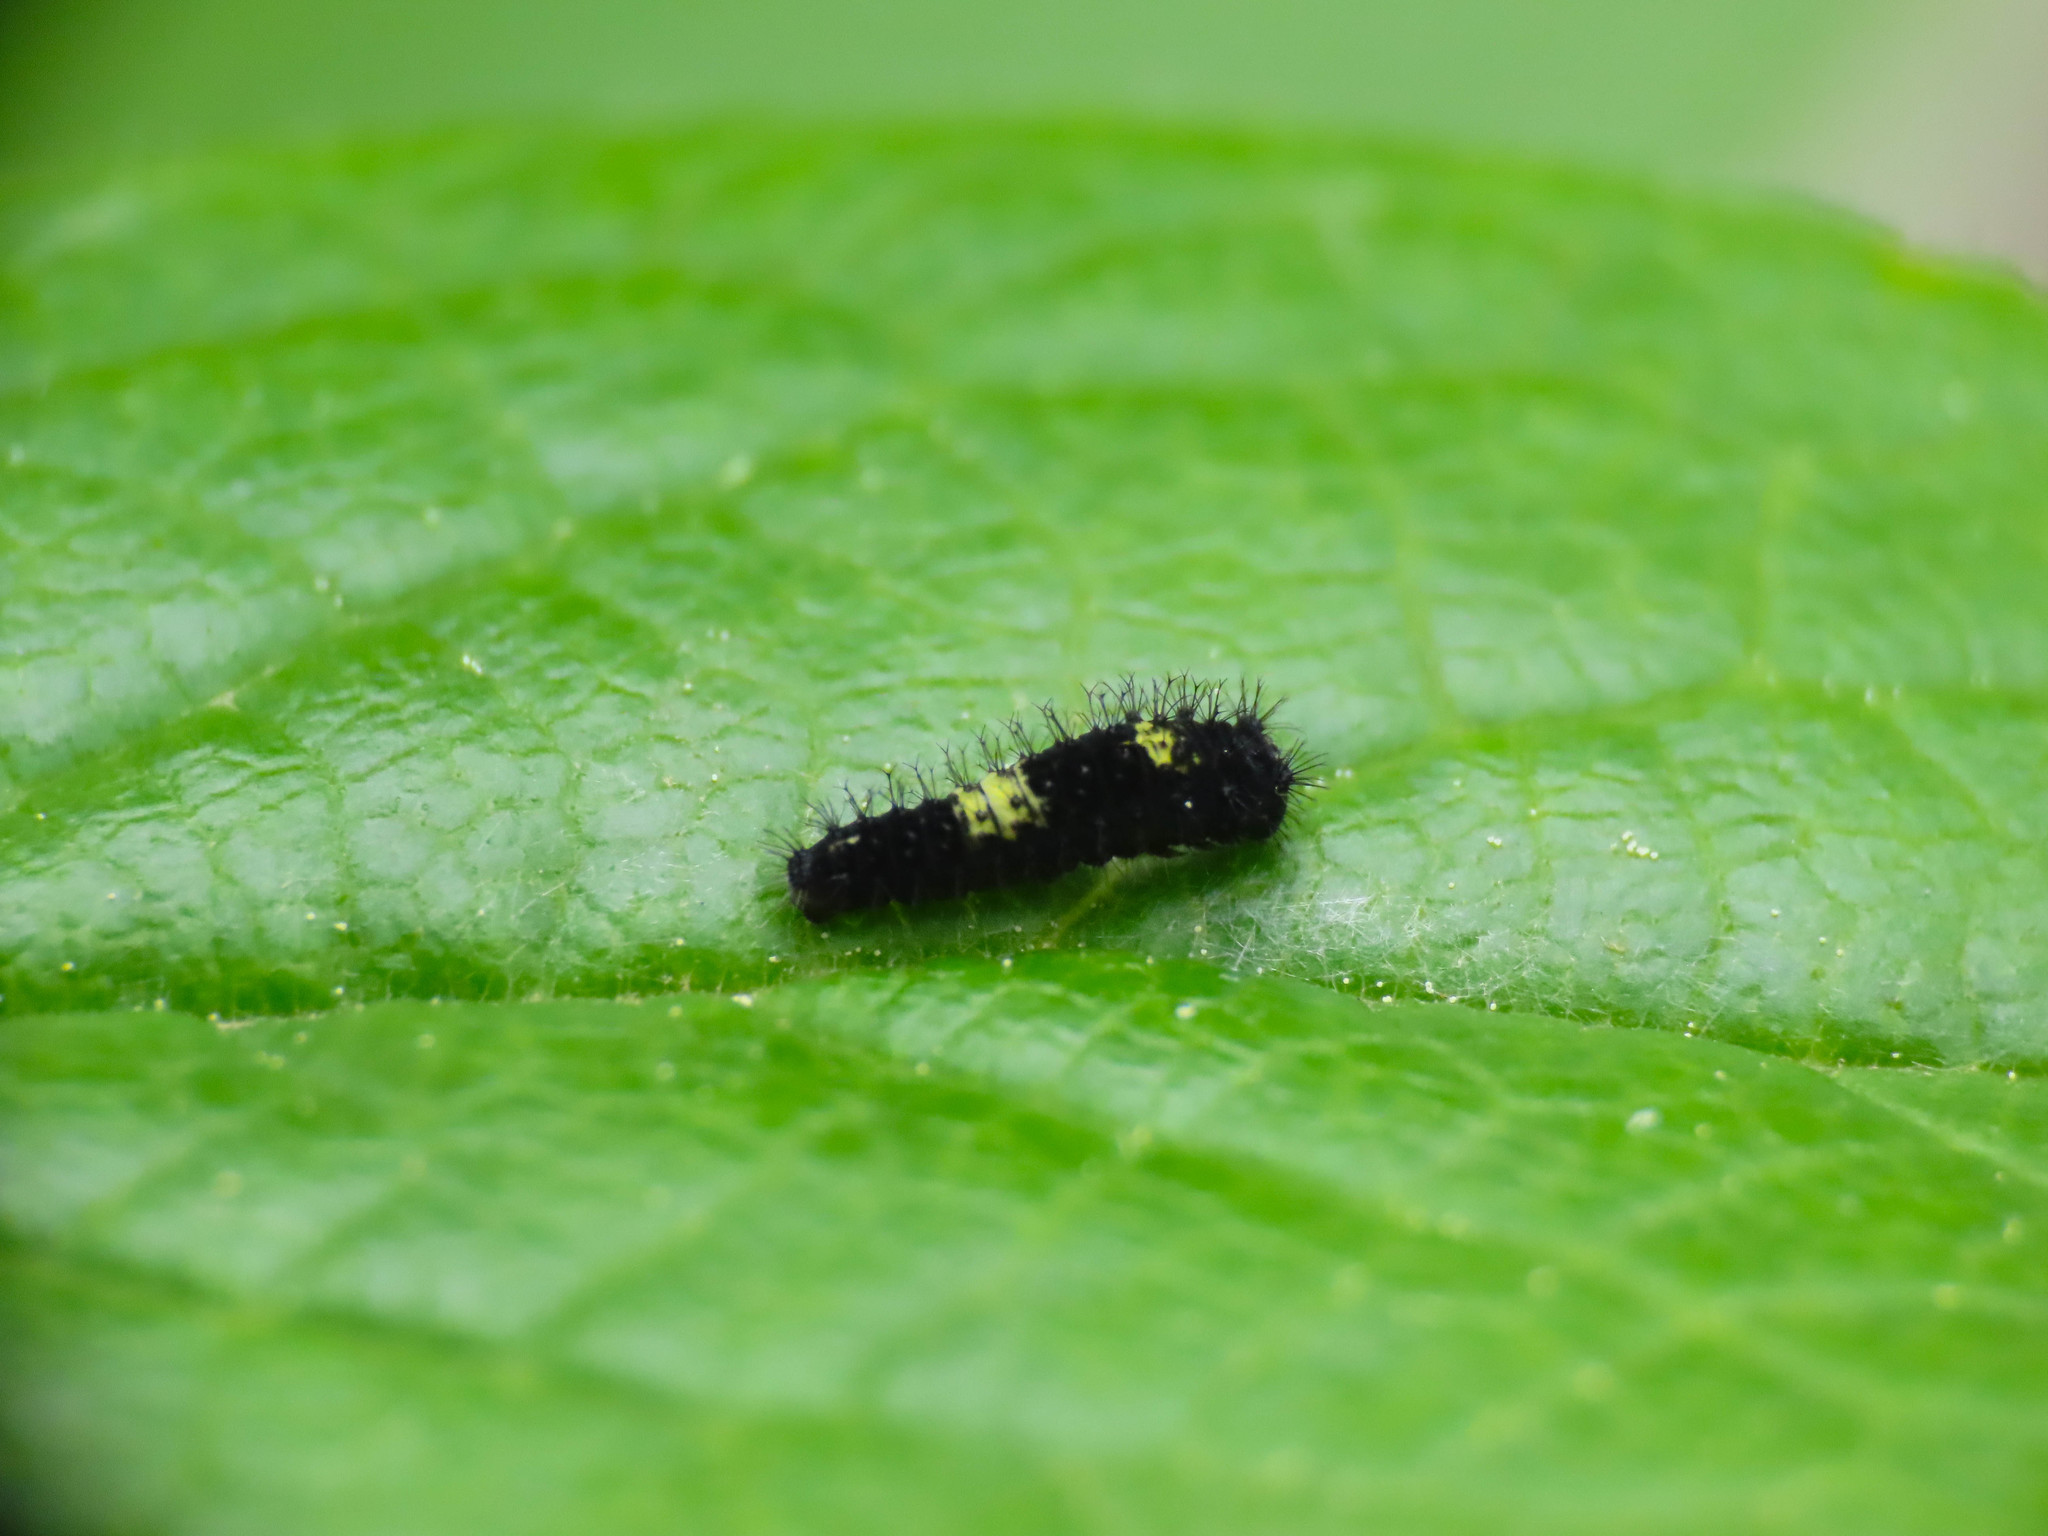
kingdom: Animalia
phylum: Arthropoda
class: Insecta
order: Lepidoptera
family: Papilionidae
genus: Iphiclides
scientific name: Iphiclides podalirius
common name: Scarce swallowtail
